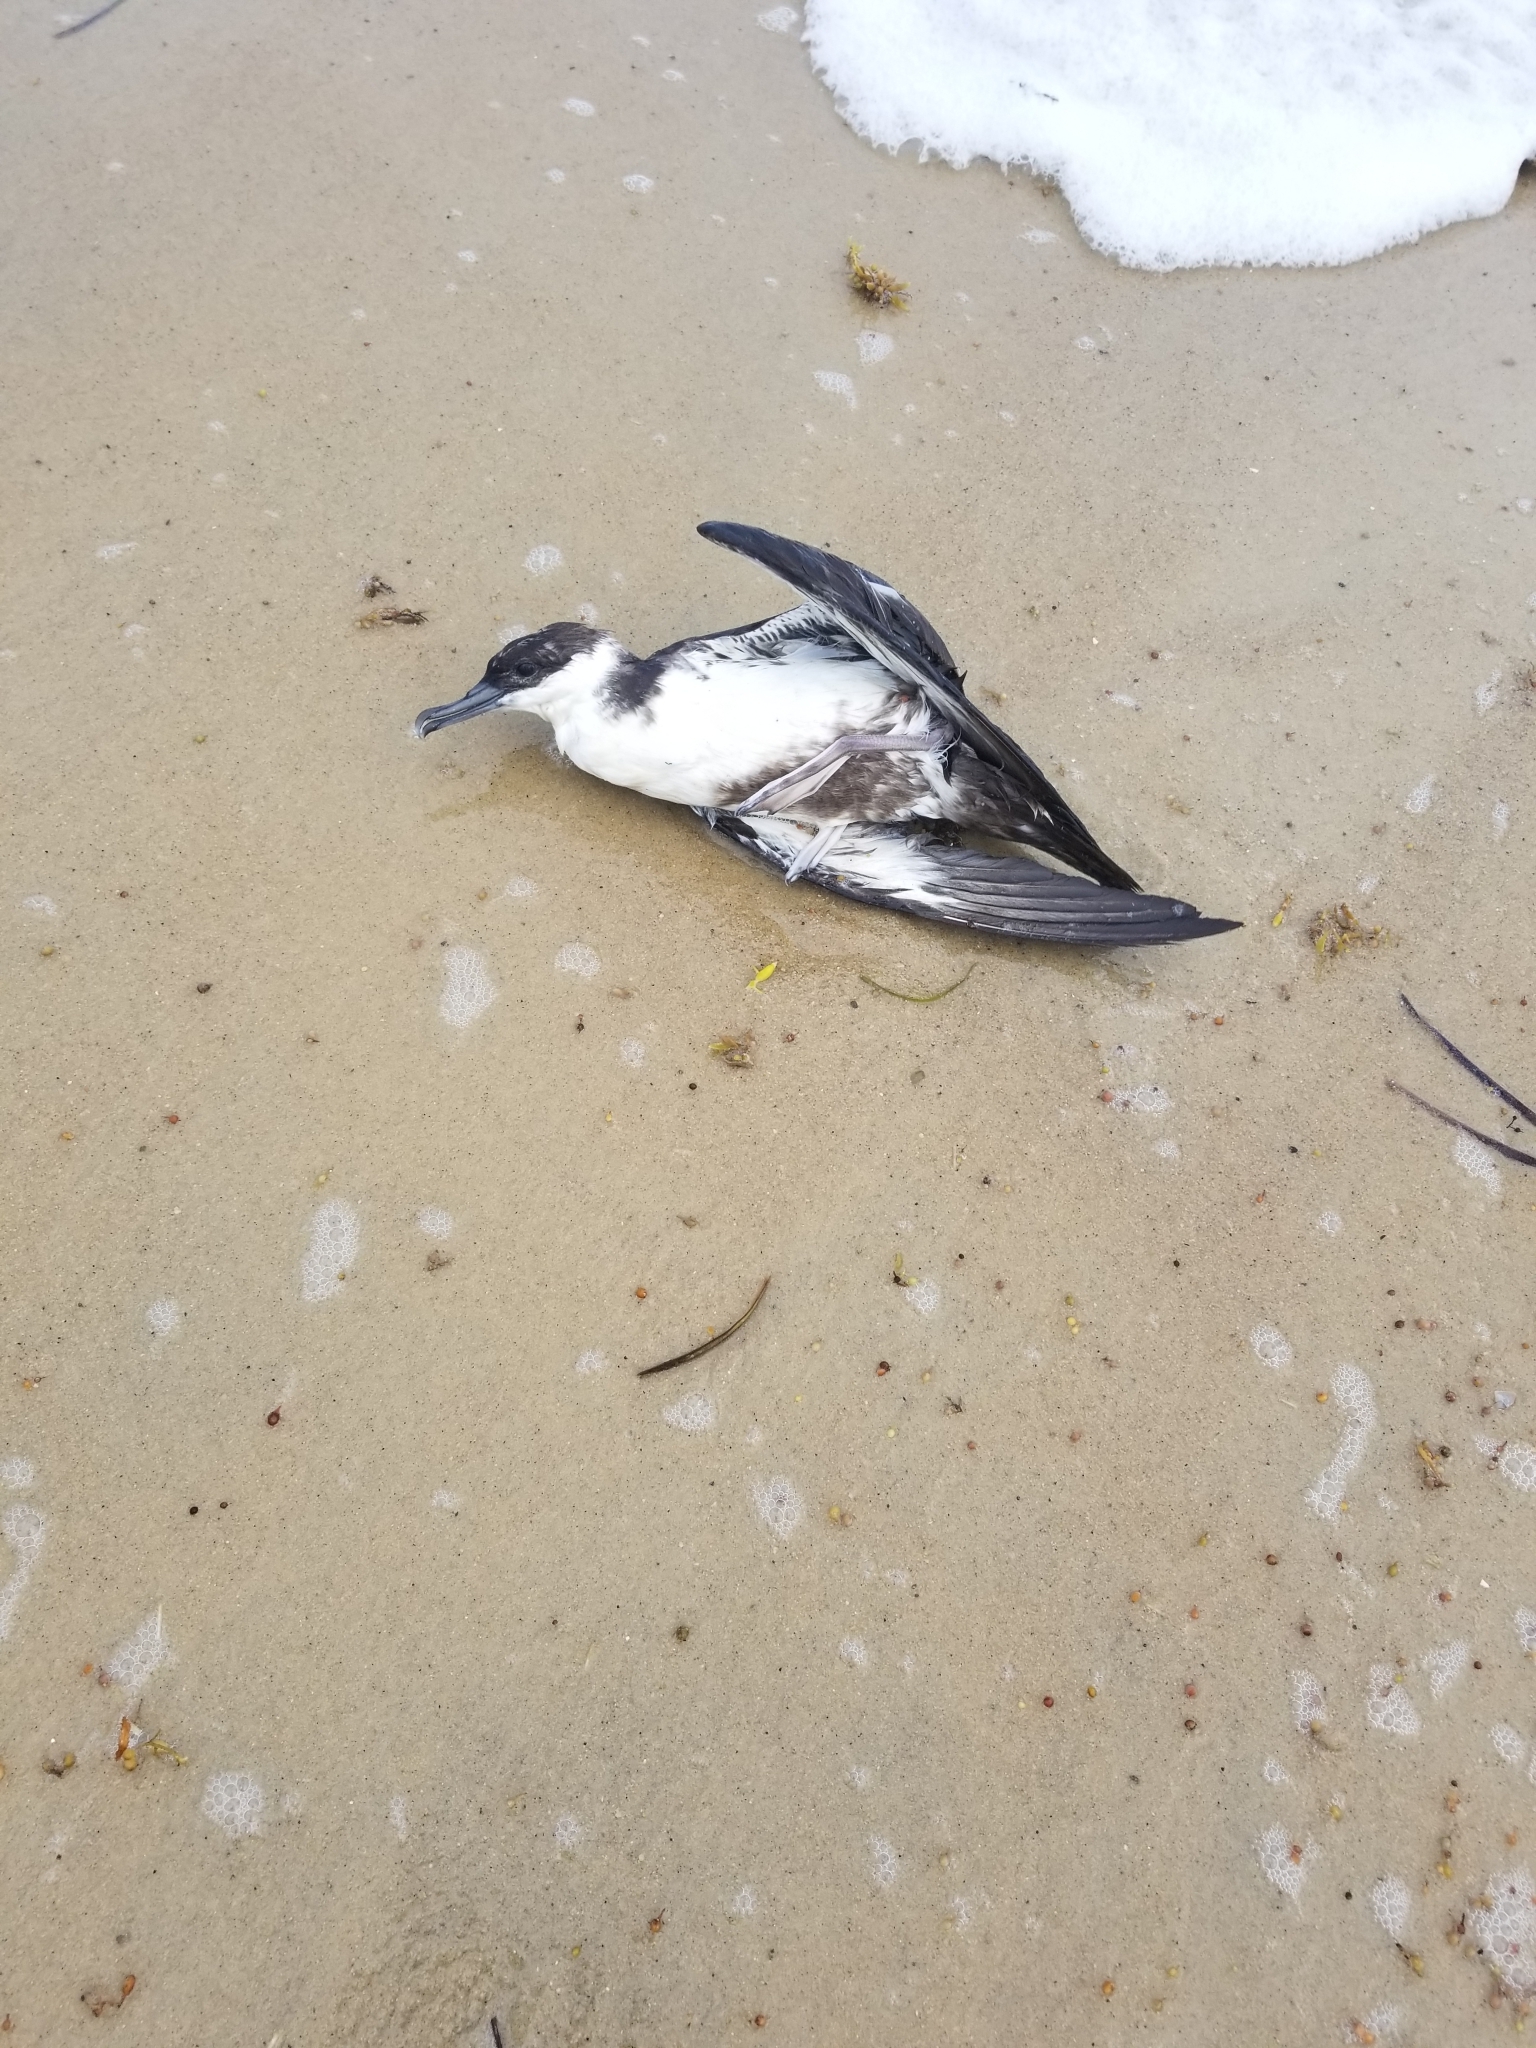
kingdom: Animalia
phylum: Chordata
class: Aves
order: Procellariiformes
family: Procellariidae
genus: Puffinus
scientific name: Puffinus gravis
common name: Great shearwater
